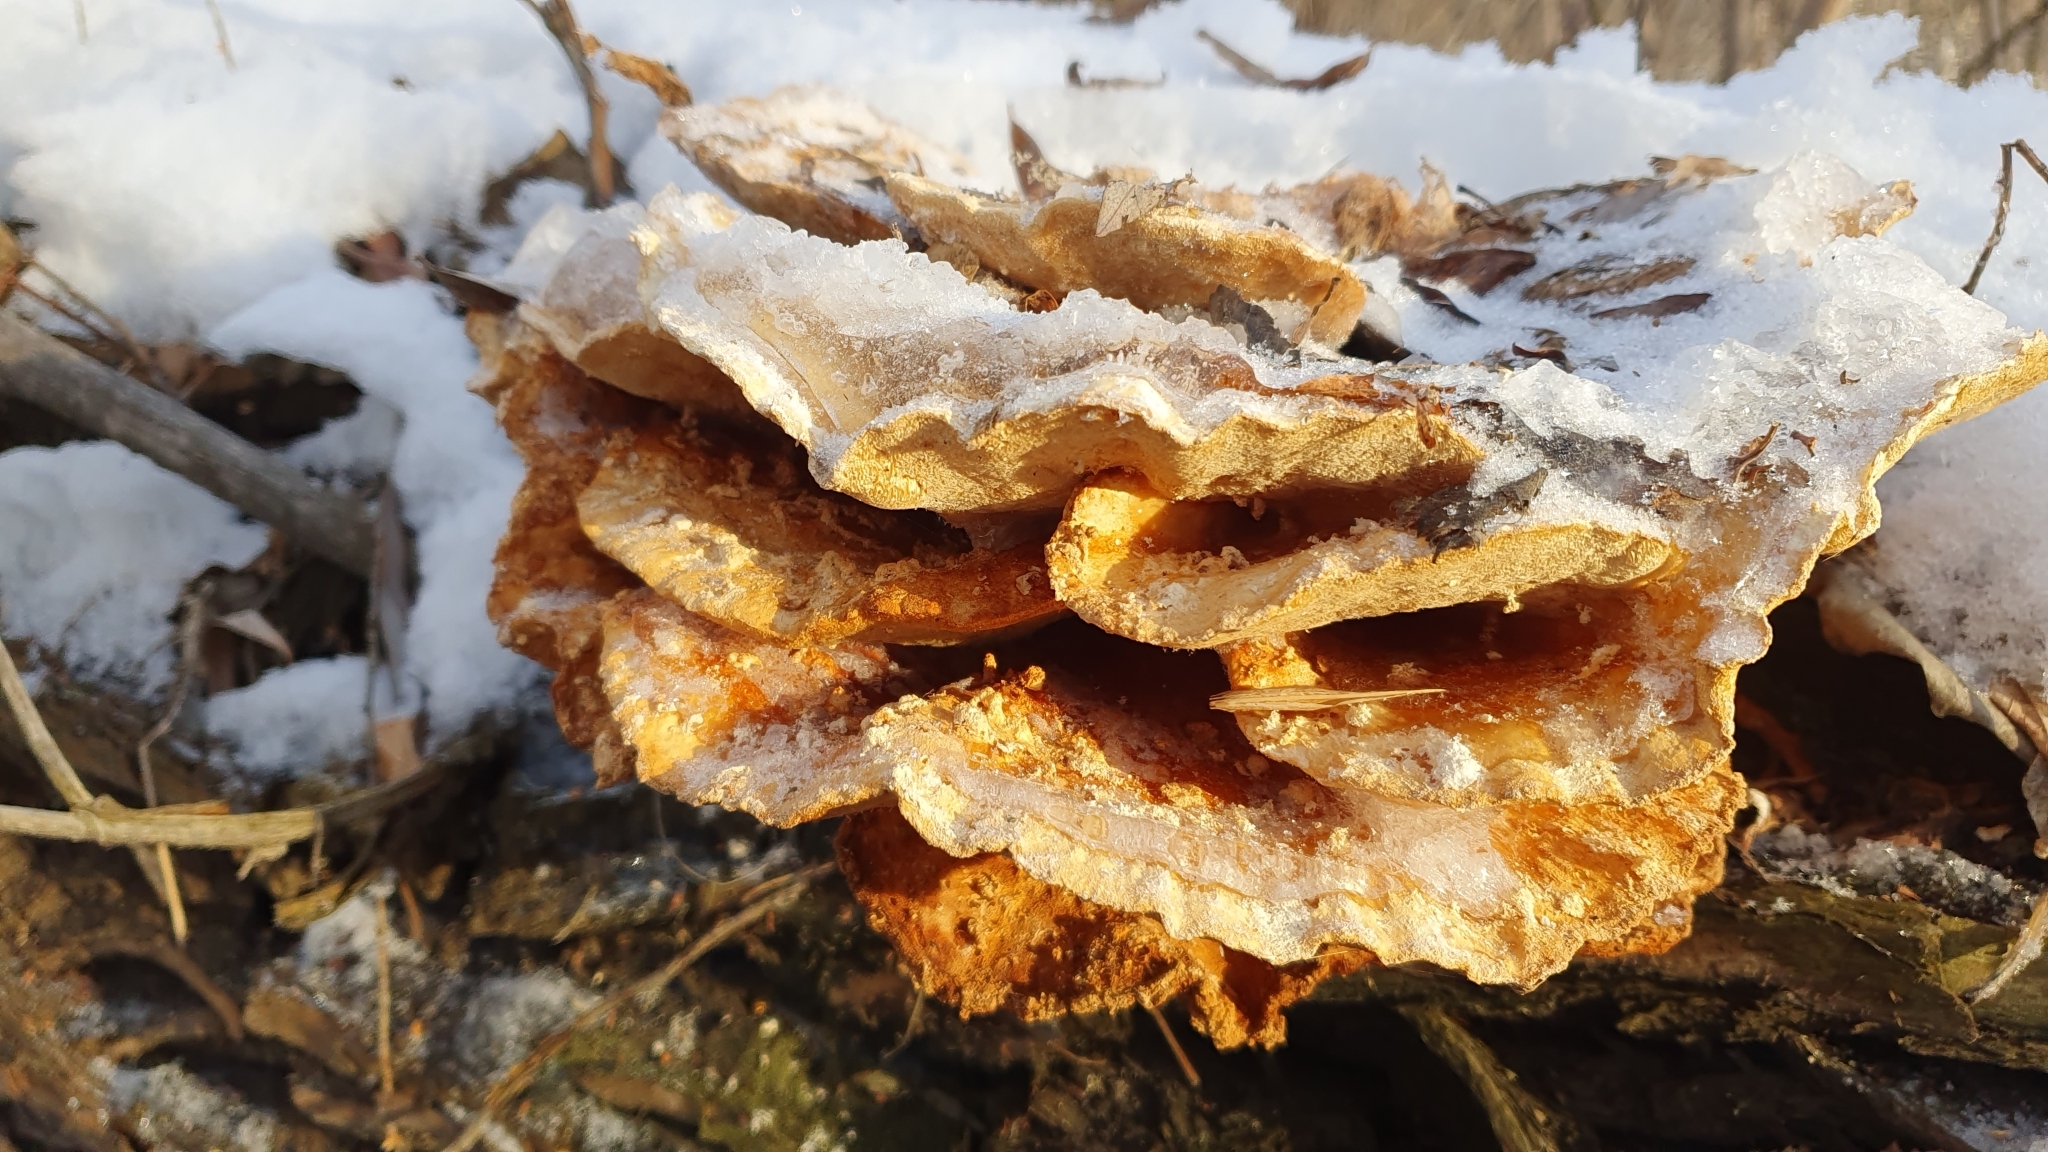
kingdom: Fungi
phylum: Basidiomycota
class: Agaricomycetes
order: Polyporales
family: Laetiporaceae
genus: Laetiporus
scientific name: Laetiporus sulphureus
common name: Chicken of the woods
